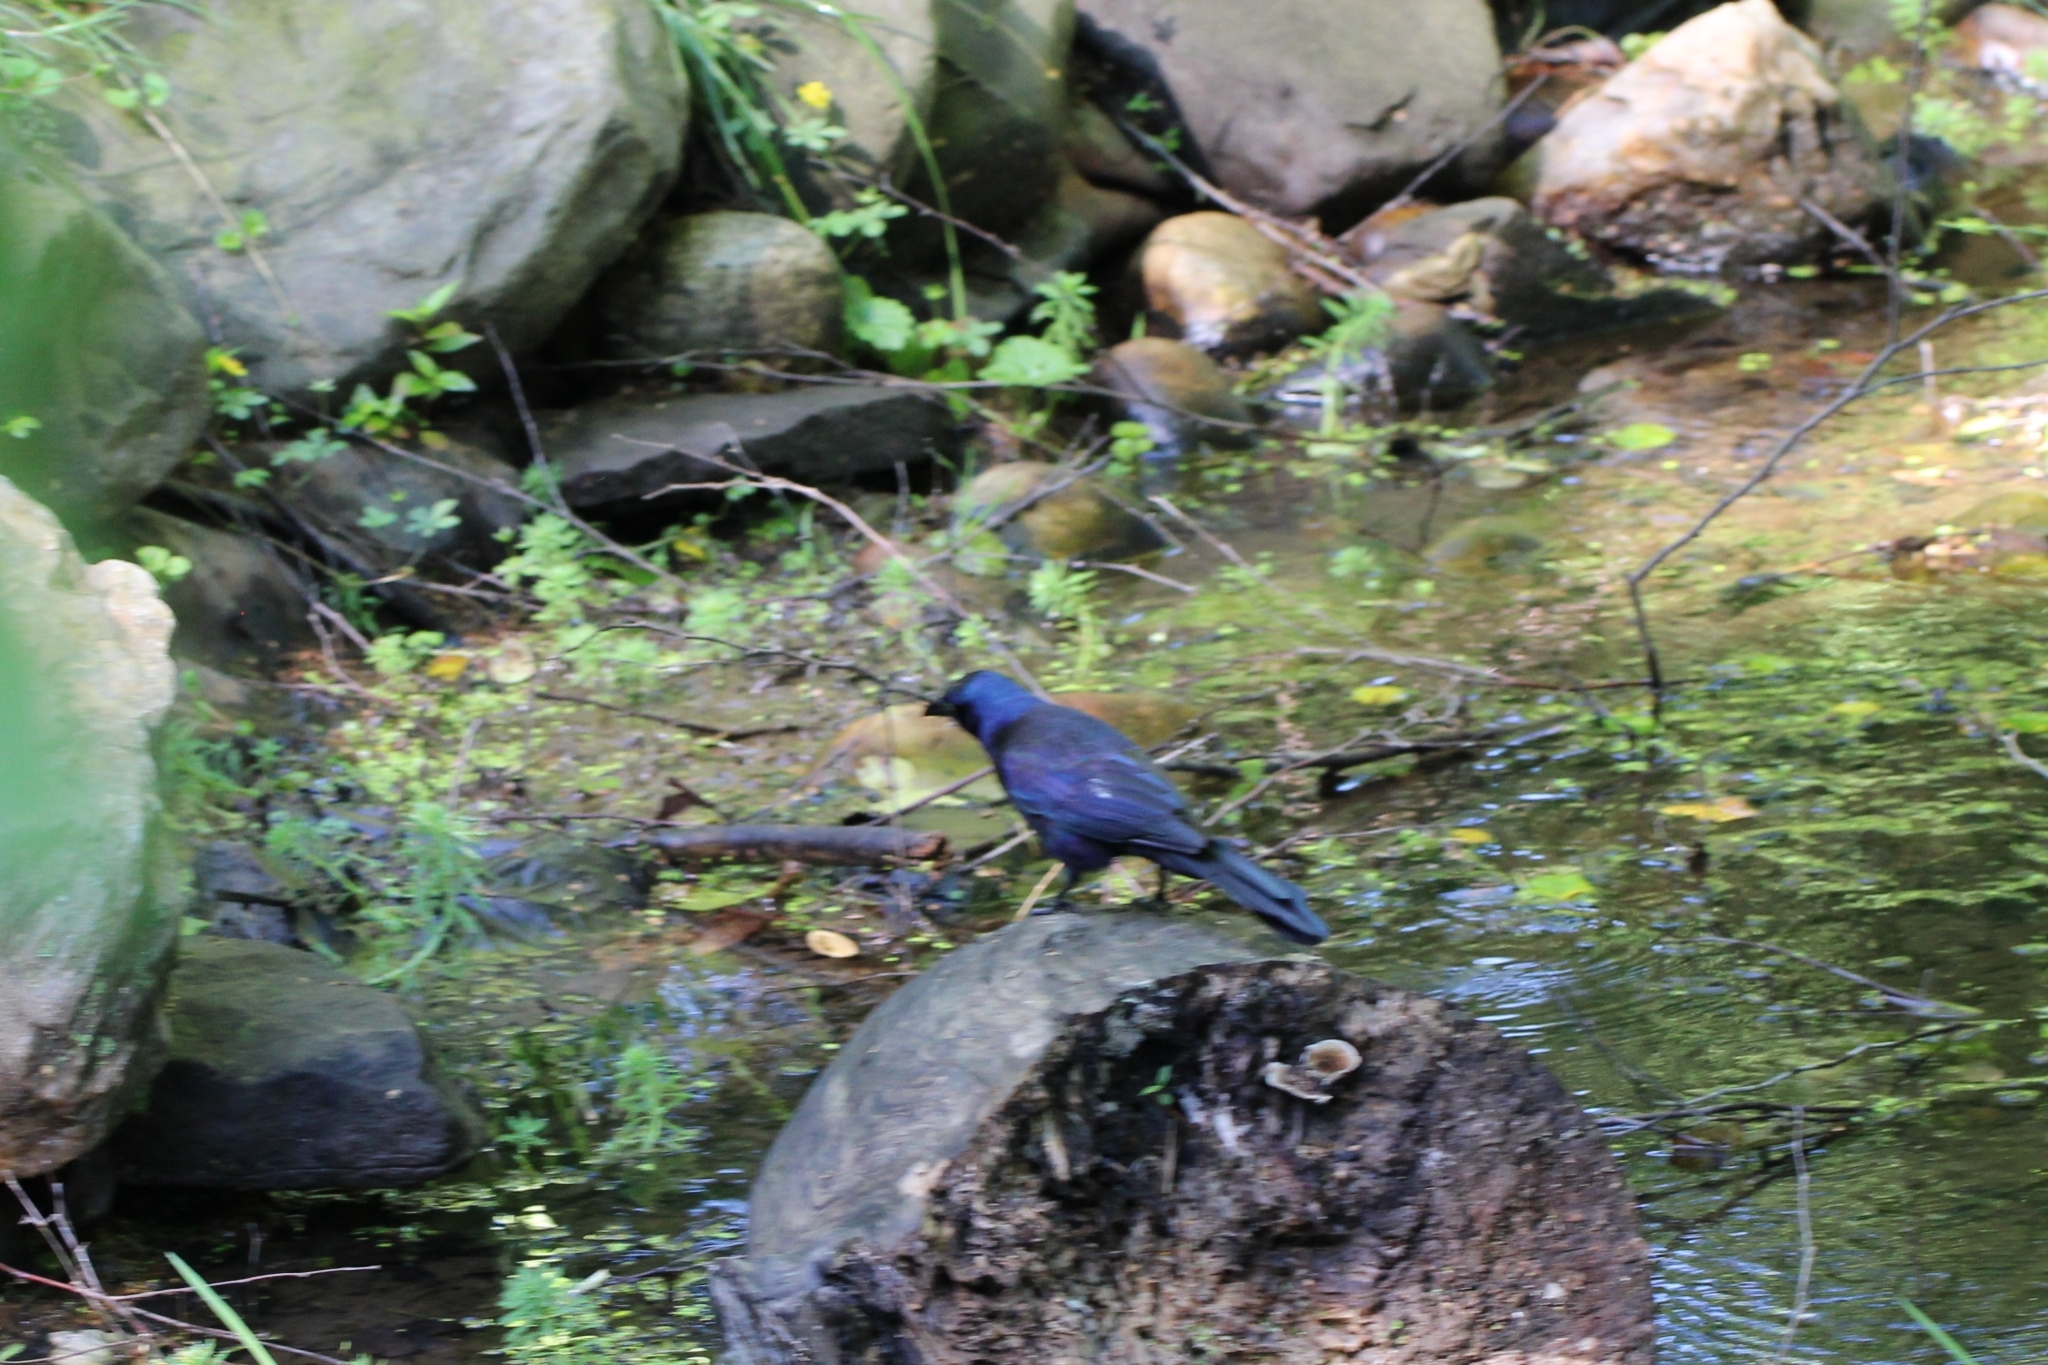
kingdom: Animalia
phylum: Chordata
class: Aves
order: Passeriformes
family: Icteridae
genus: Quiscalus
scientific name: Quiscalus quiscula
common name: Common grackle
